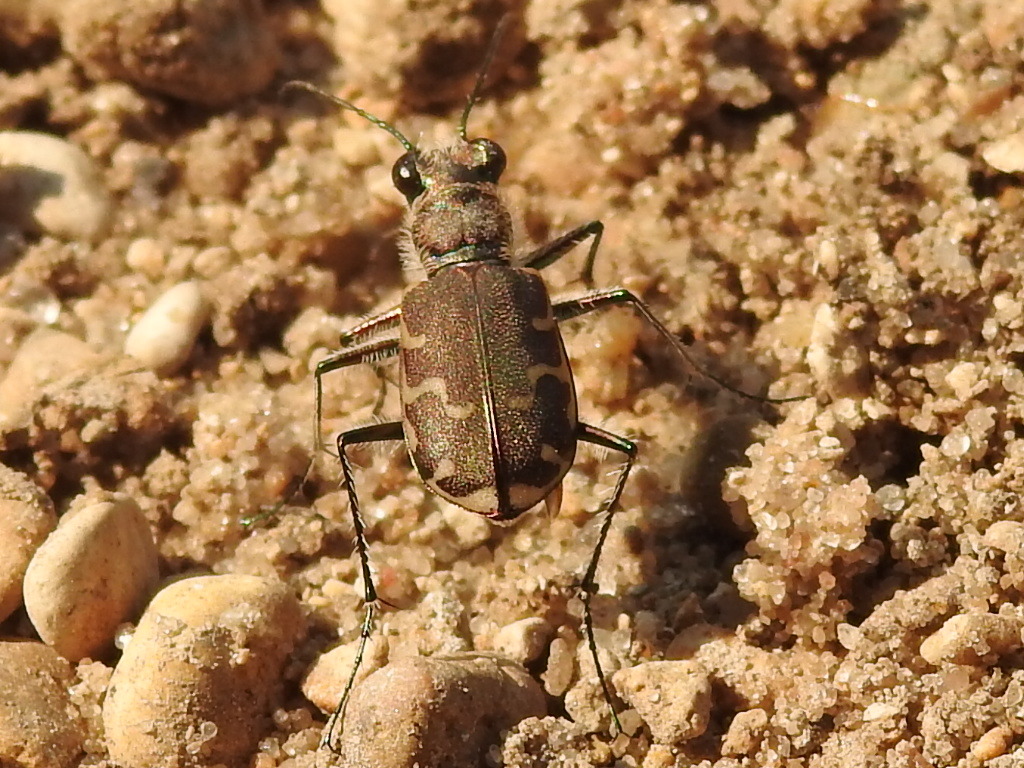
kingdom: Animalia
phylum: Arthropoda
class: Insecta
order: Coleoptera
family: Carabidae
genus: Cicindela
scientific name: Cicindela repanda
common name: Bronzed tiger beetle
